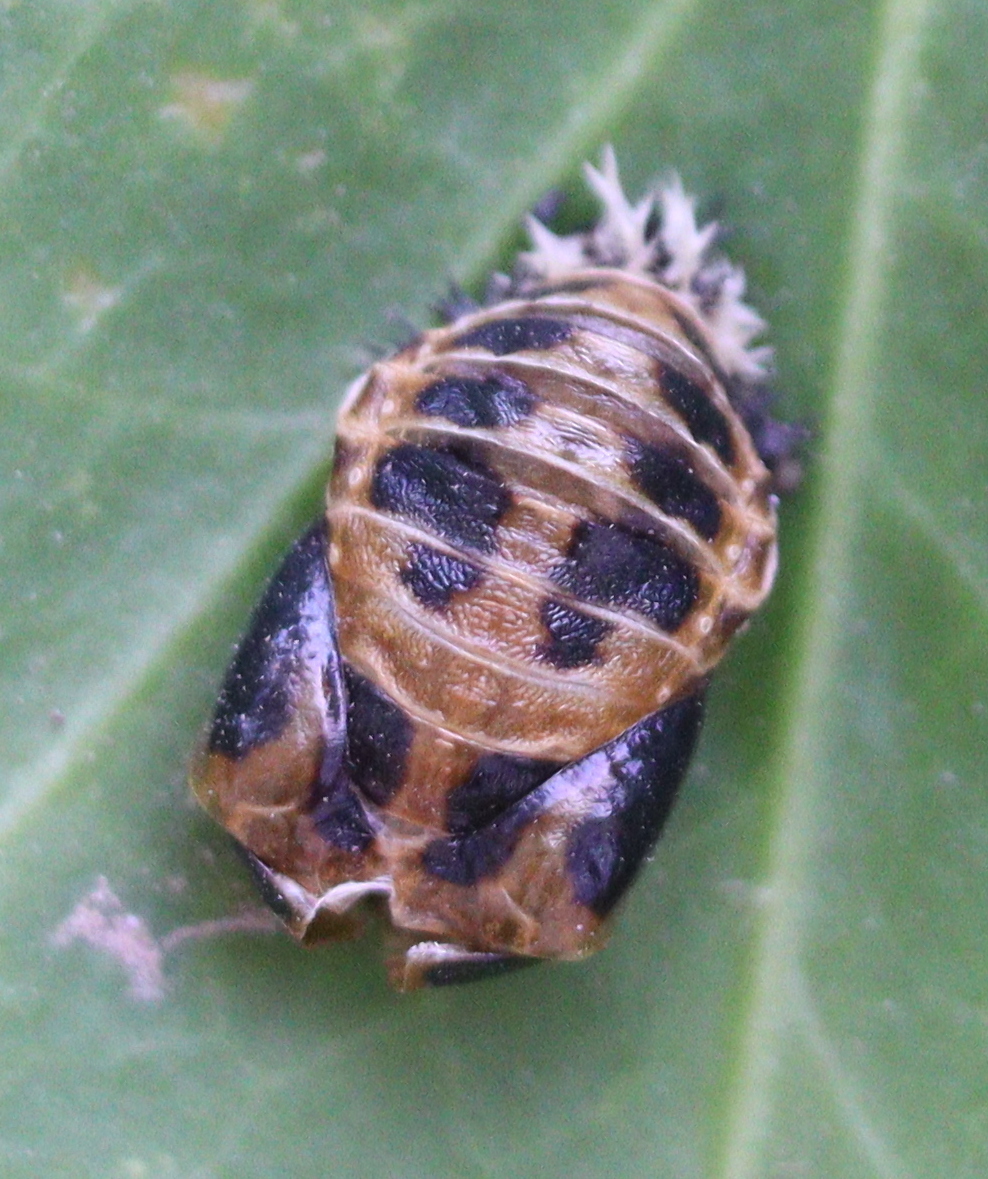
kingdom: Animalia
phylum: Arthropoda
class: Insecta
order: Coleoptera
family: Coccinellidae
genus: Harmonia
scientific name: Harmonia axyridis
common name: Harlequin ladybird
